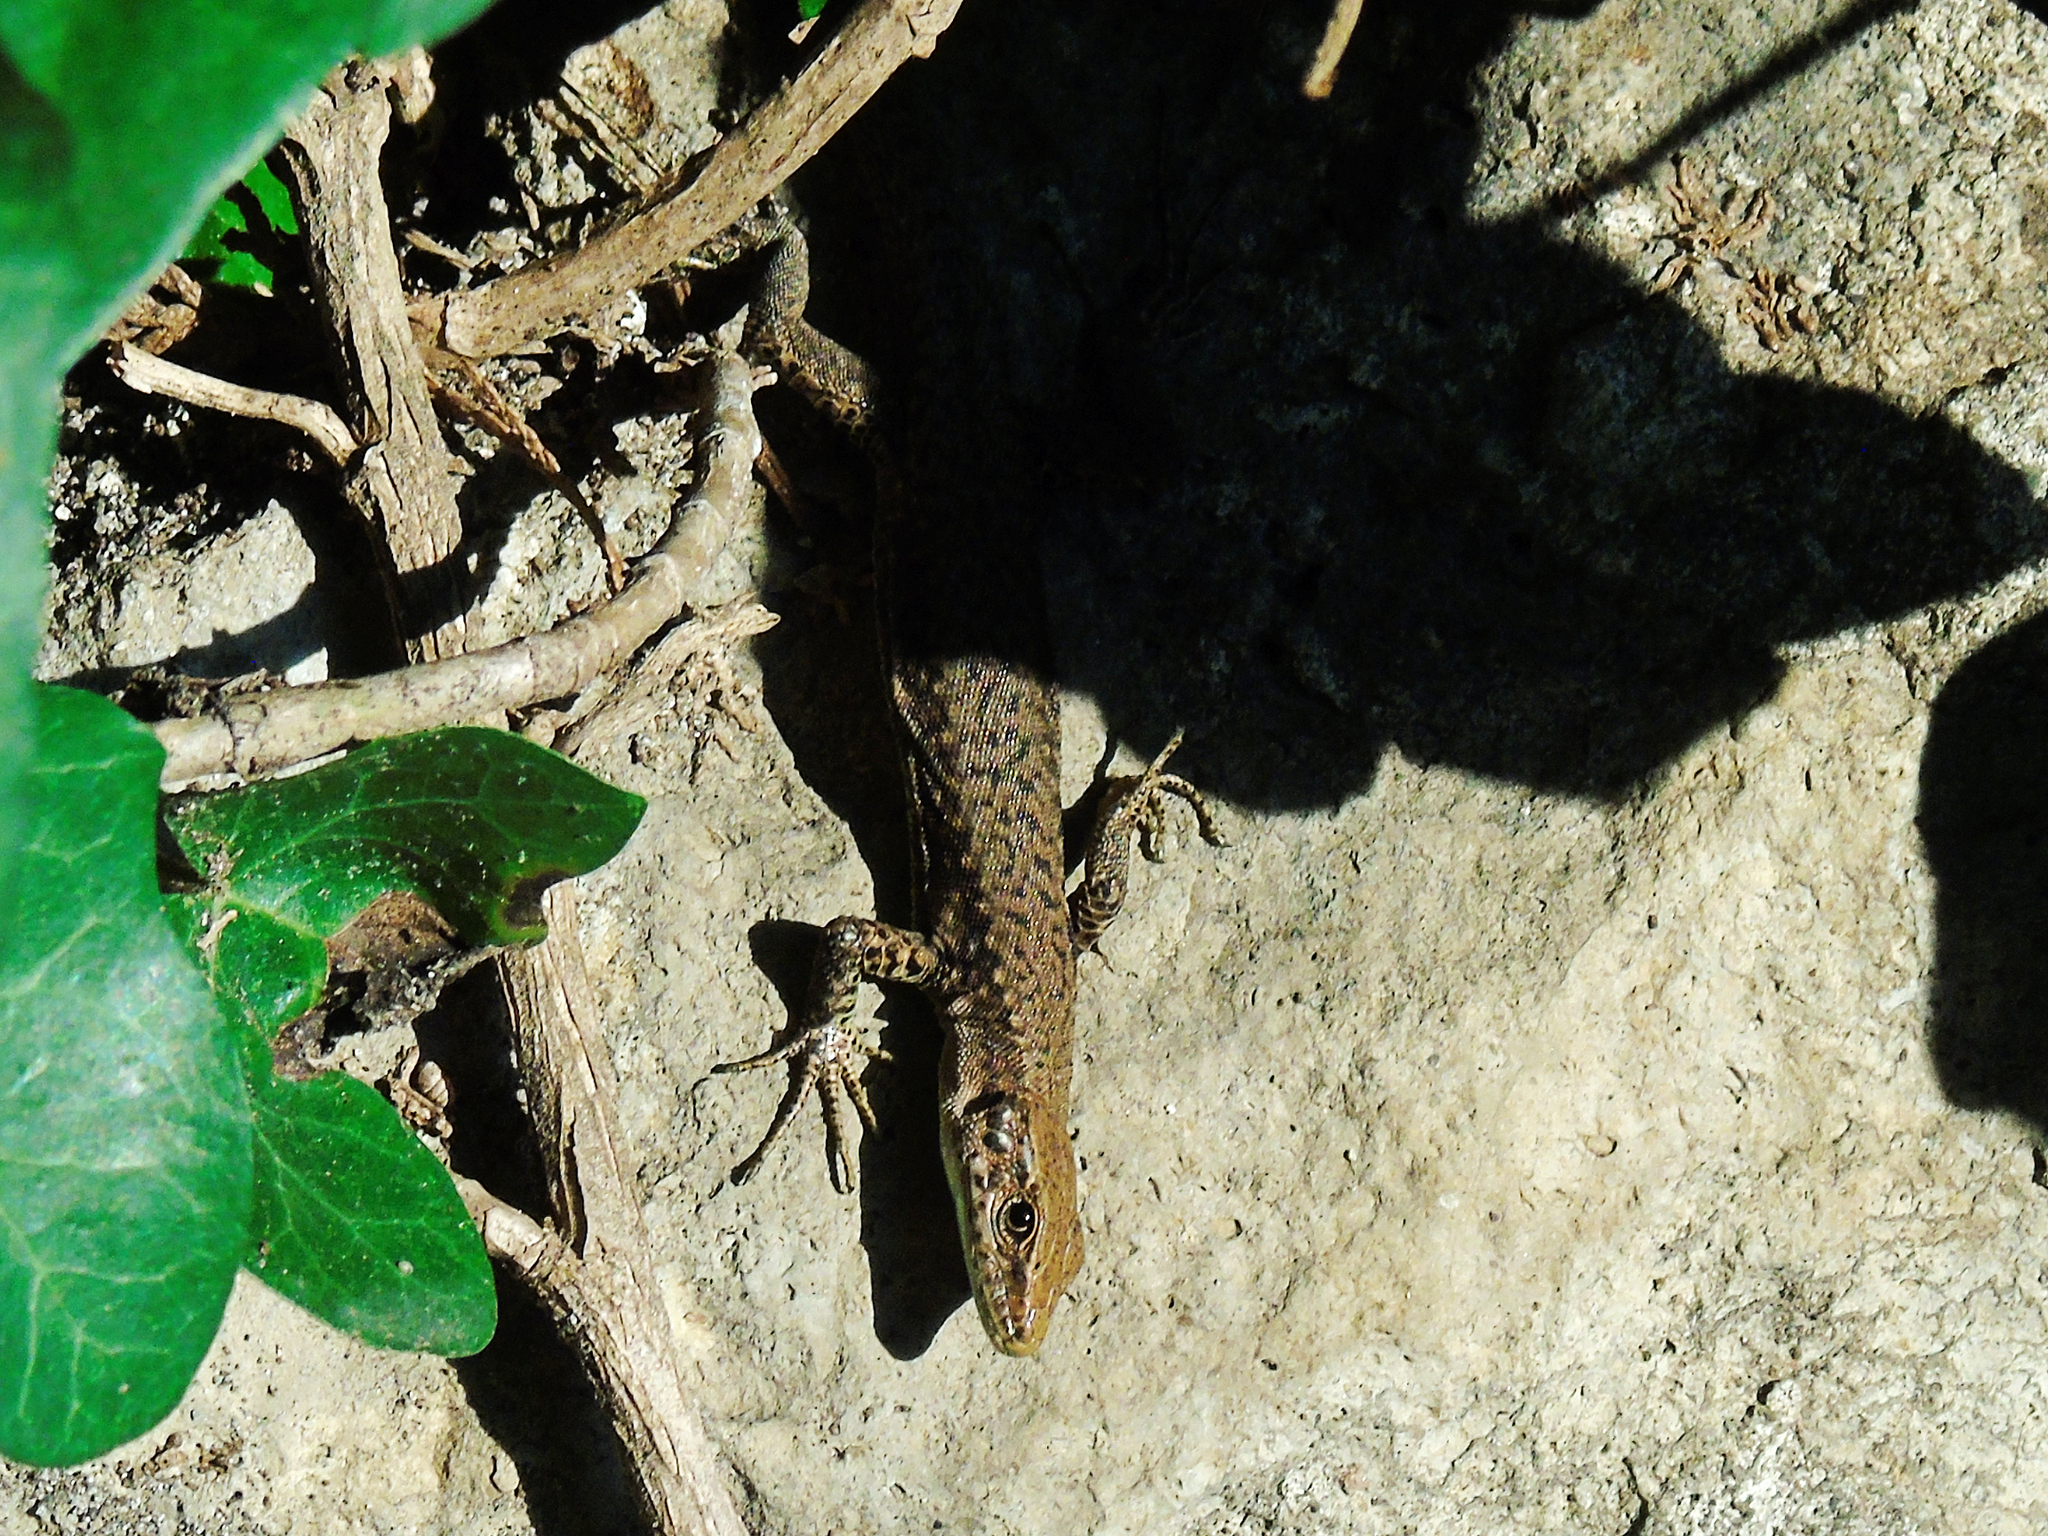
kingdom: Animalia
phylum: Chordata
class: Squamata
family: Lacertidae
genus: Darevskia
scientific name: Darevskia rudis
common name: Spiny-tailed lizard
